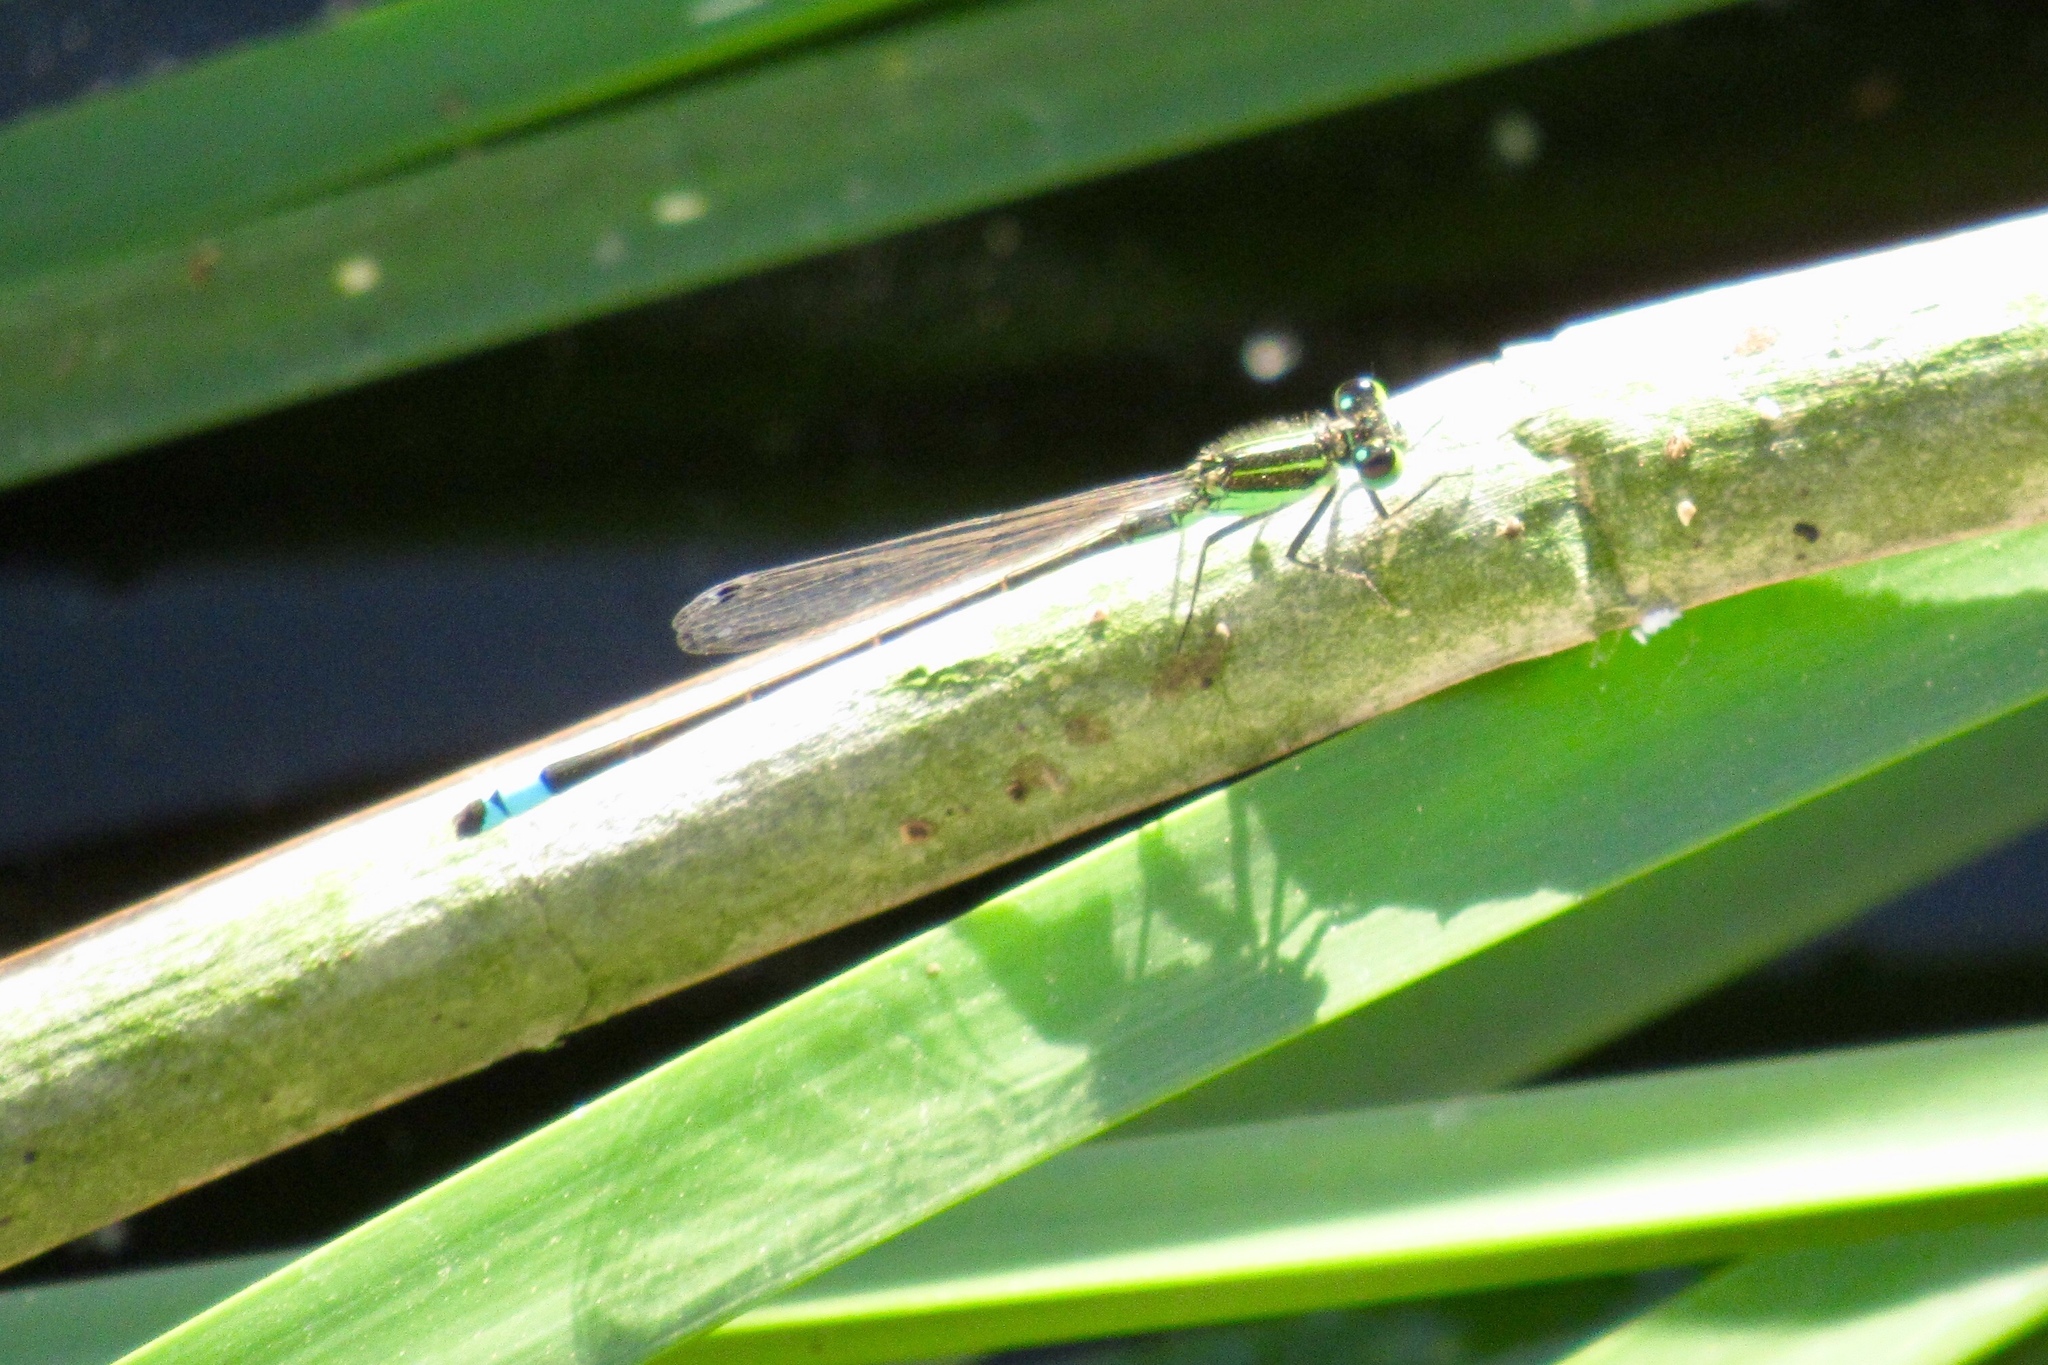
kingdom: Animalia
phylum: Arthropoda
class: Insecta
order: Odonata
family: Coenagrionidae
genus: Ischnura
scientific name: Ischnura ramburii
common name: Rambur's forktail
